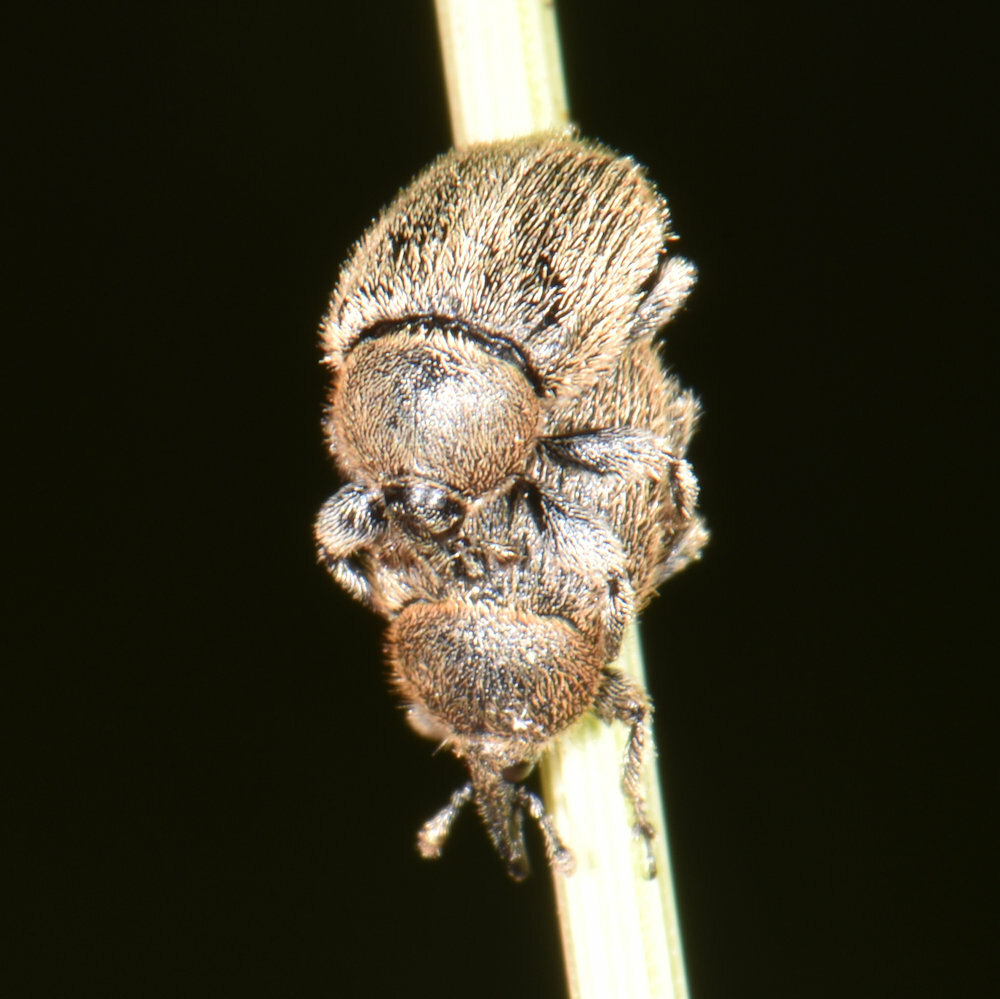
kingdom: Animalia
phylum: Arthropoda
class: Insecta
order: Coleoptera
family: Curculionidae
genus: Rhinusa
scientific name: Rhinusa tetra
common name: Weevil
